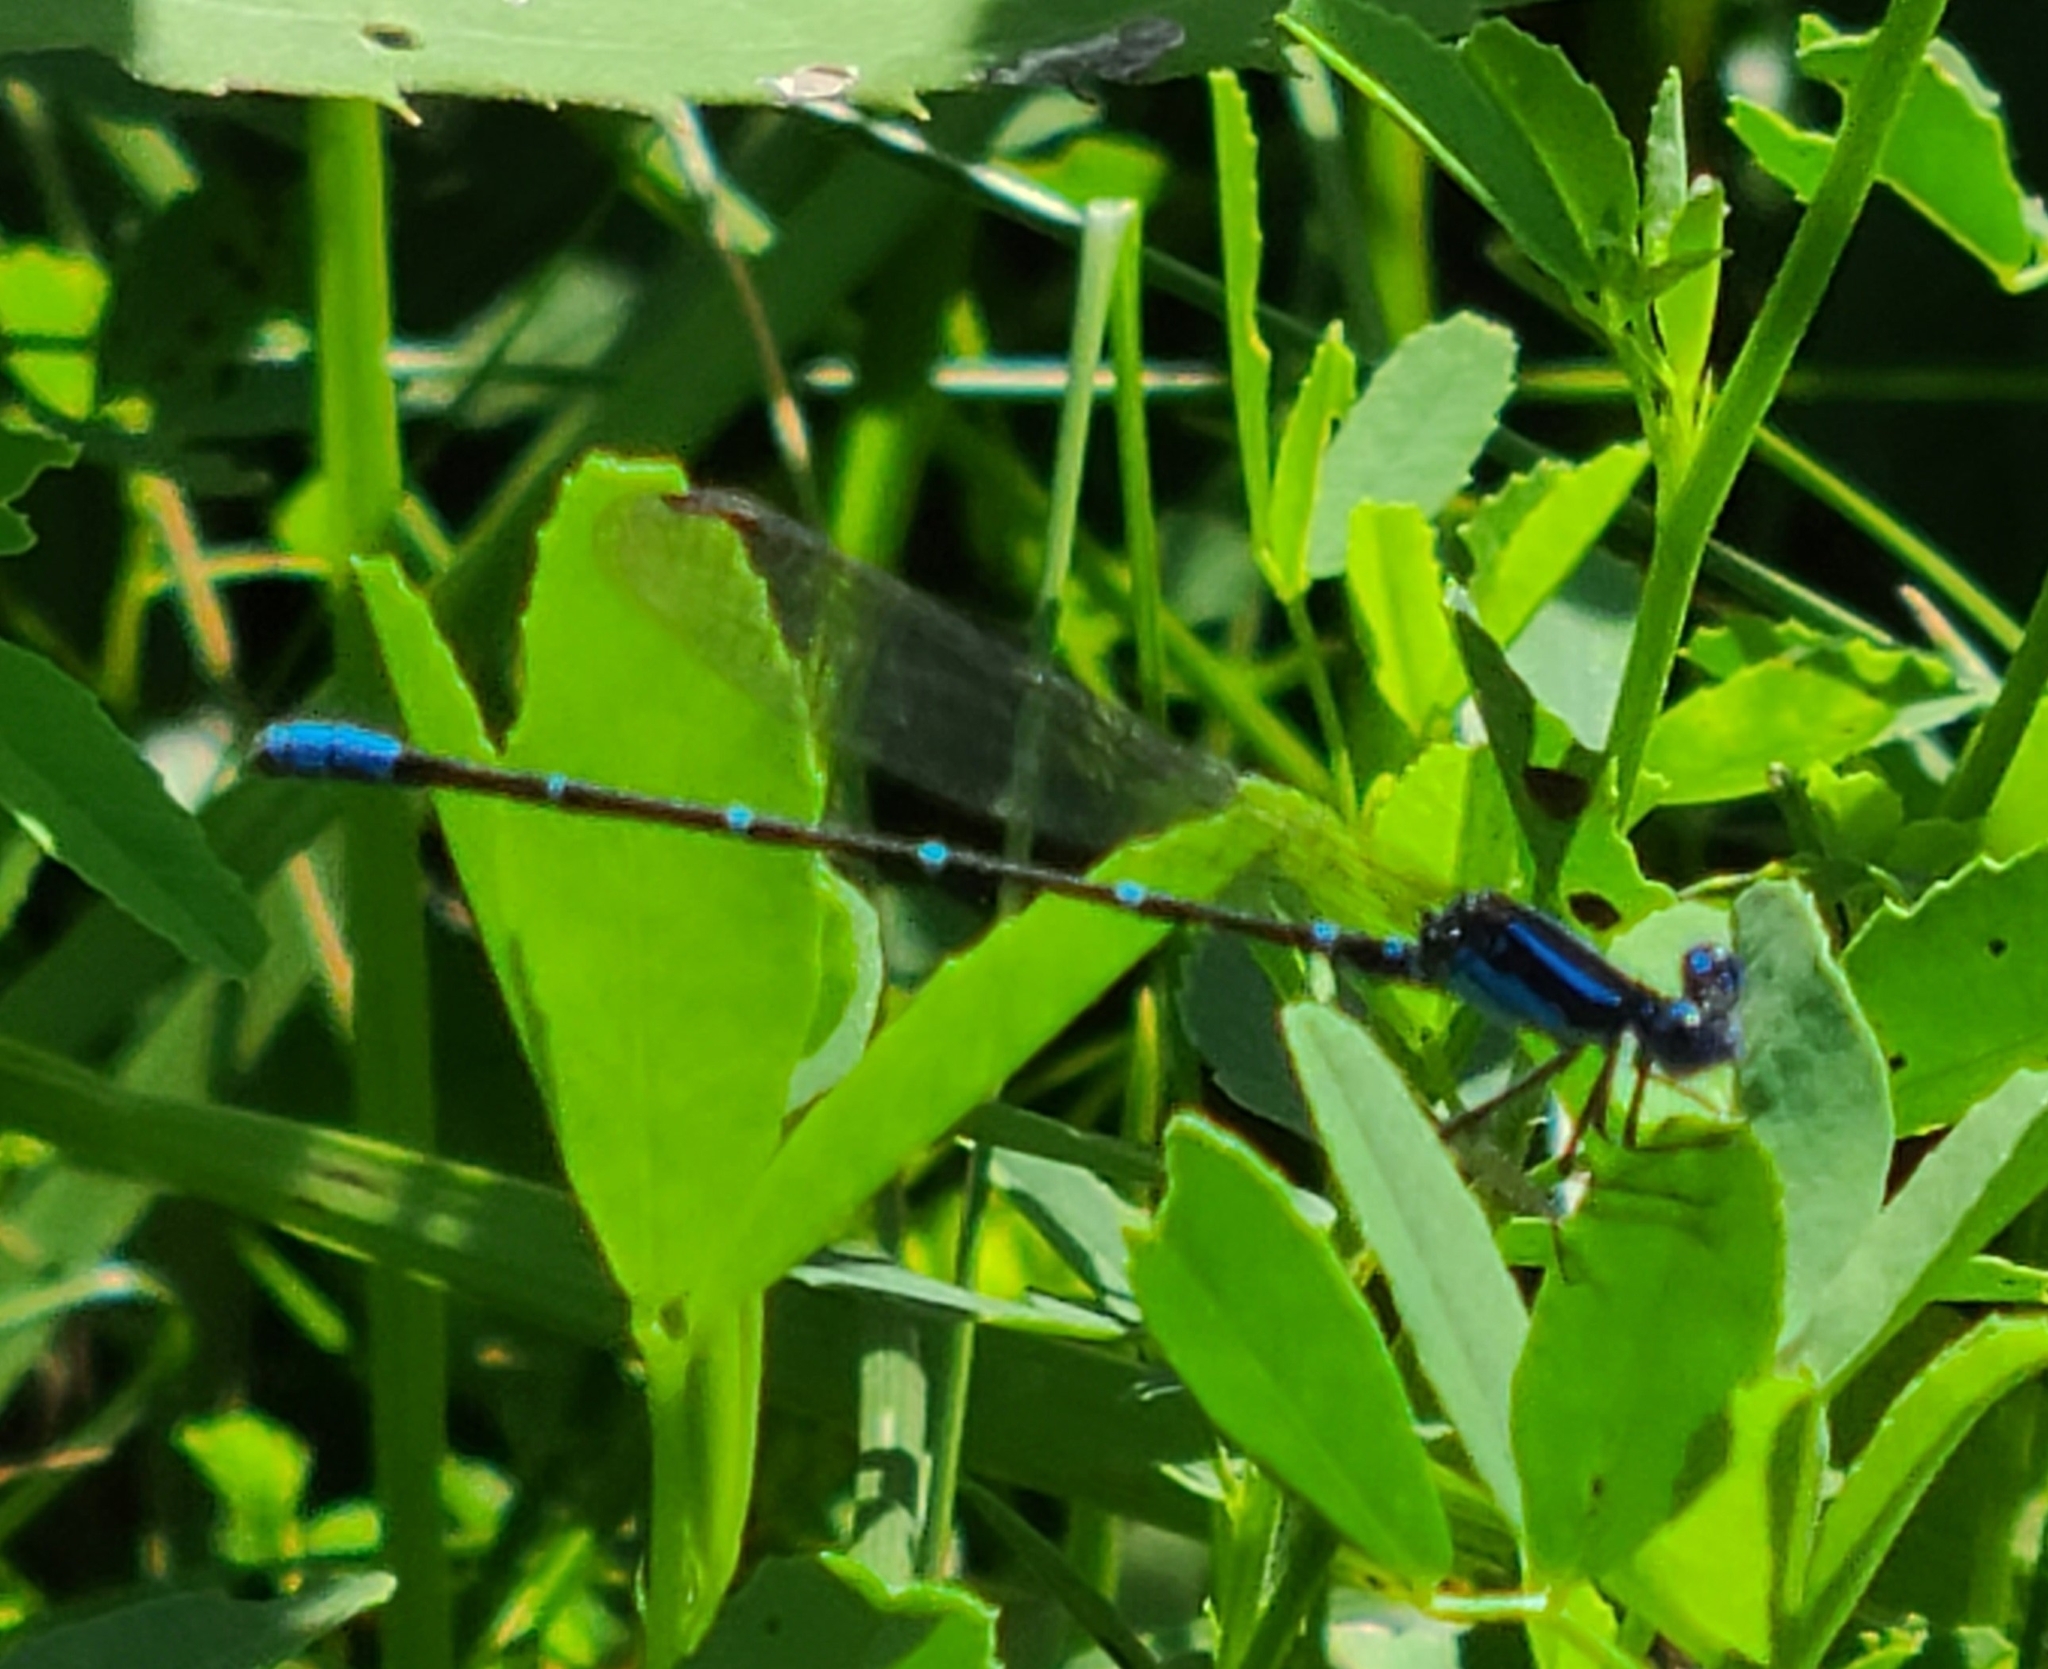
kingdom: Animalia
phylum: Arthropoda
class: Insecta
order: Odonata
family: Coenagrionidae
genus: Argia
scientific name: Argia sedula
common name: Blue-ringed dancer
